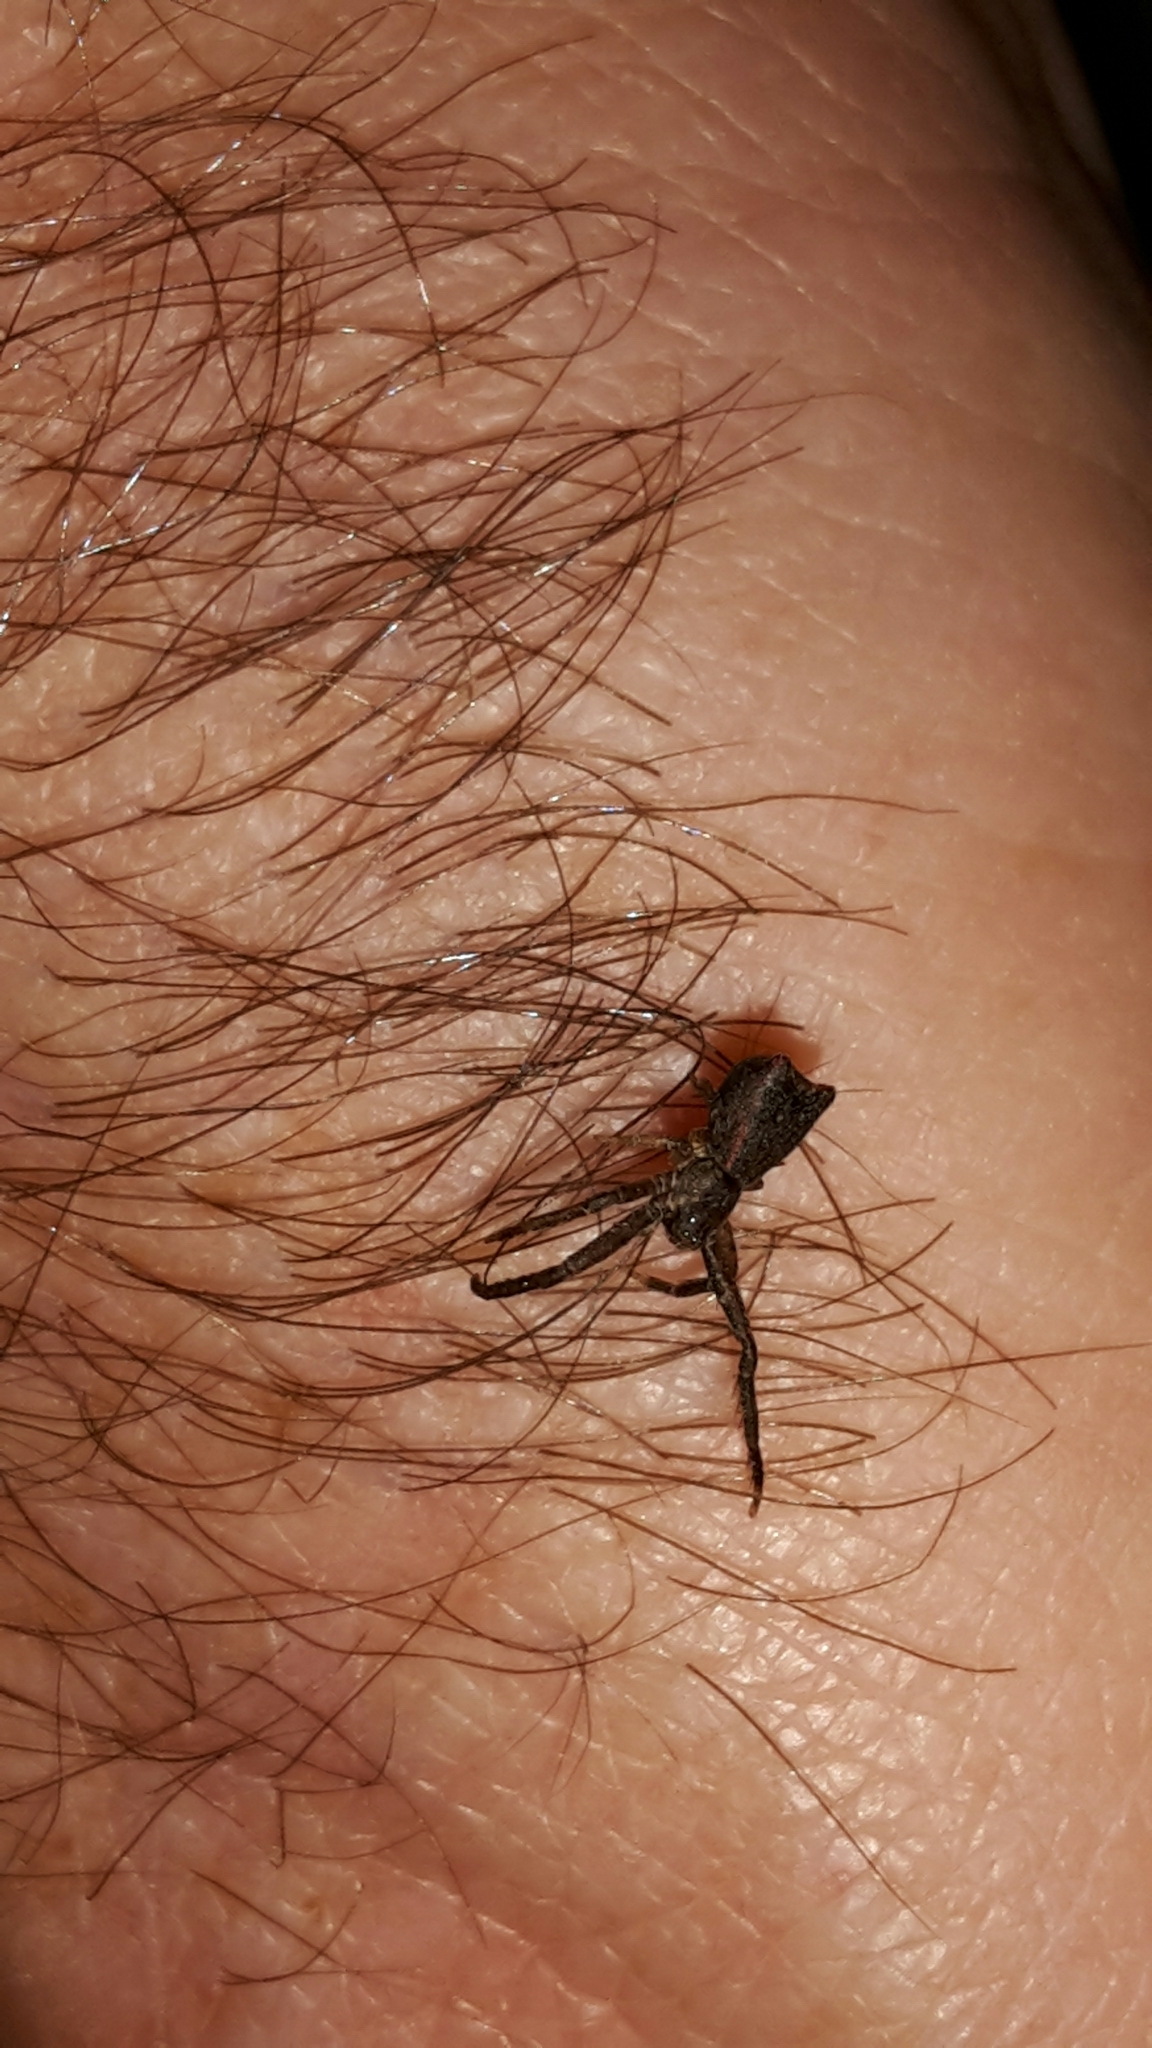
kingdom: Animalia
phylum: Arthropoda
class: Arachnida
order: Araneae
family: Thomisidae
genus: Sidymella
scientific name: Sidymella angulata
